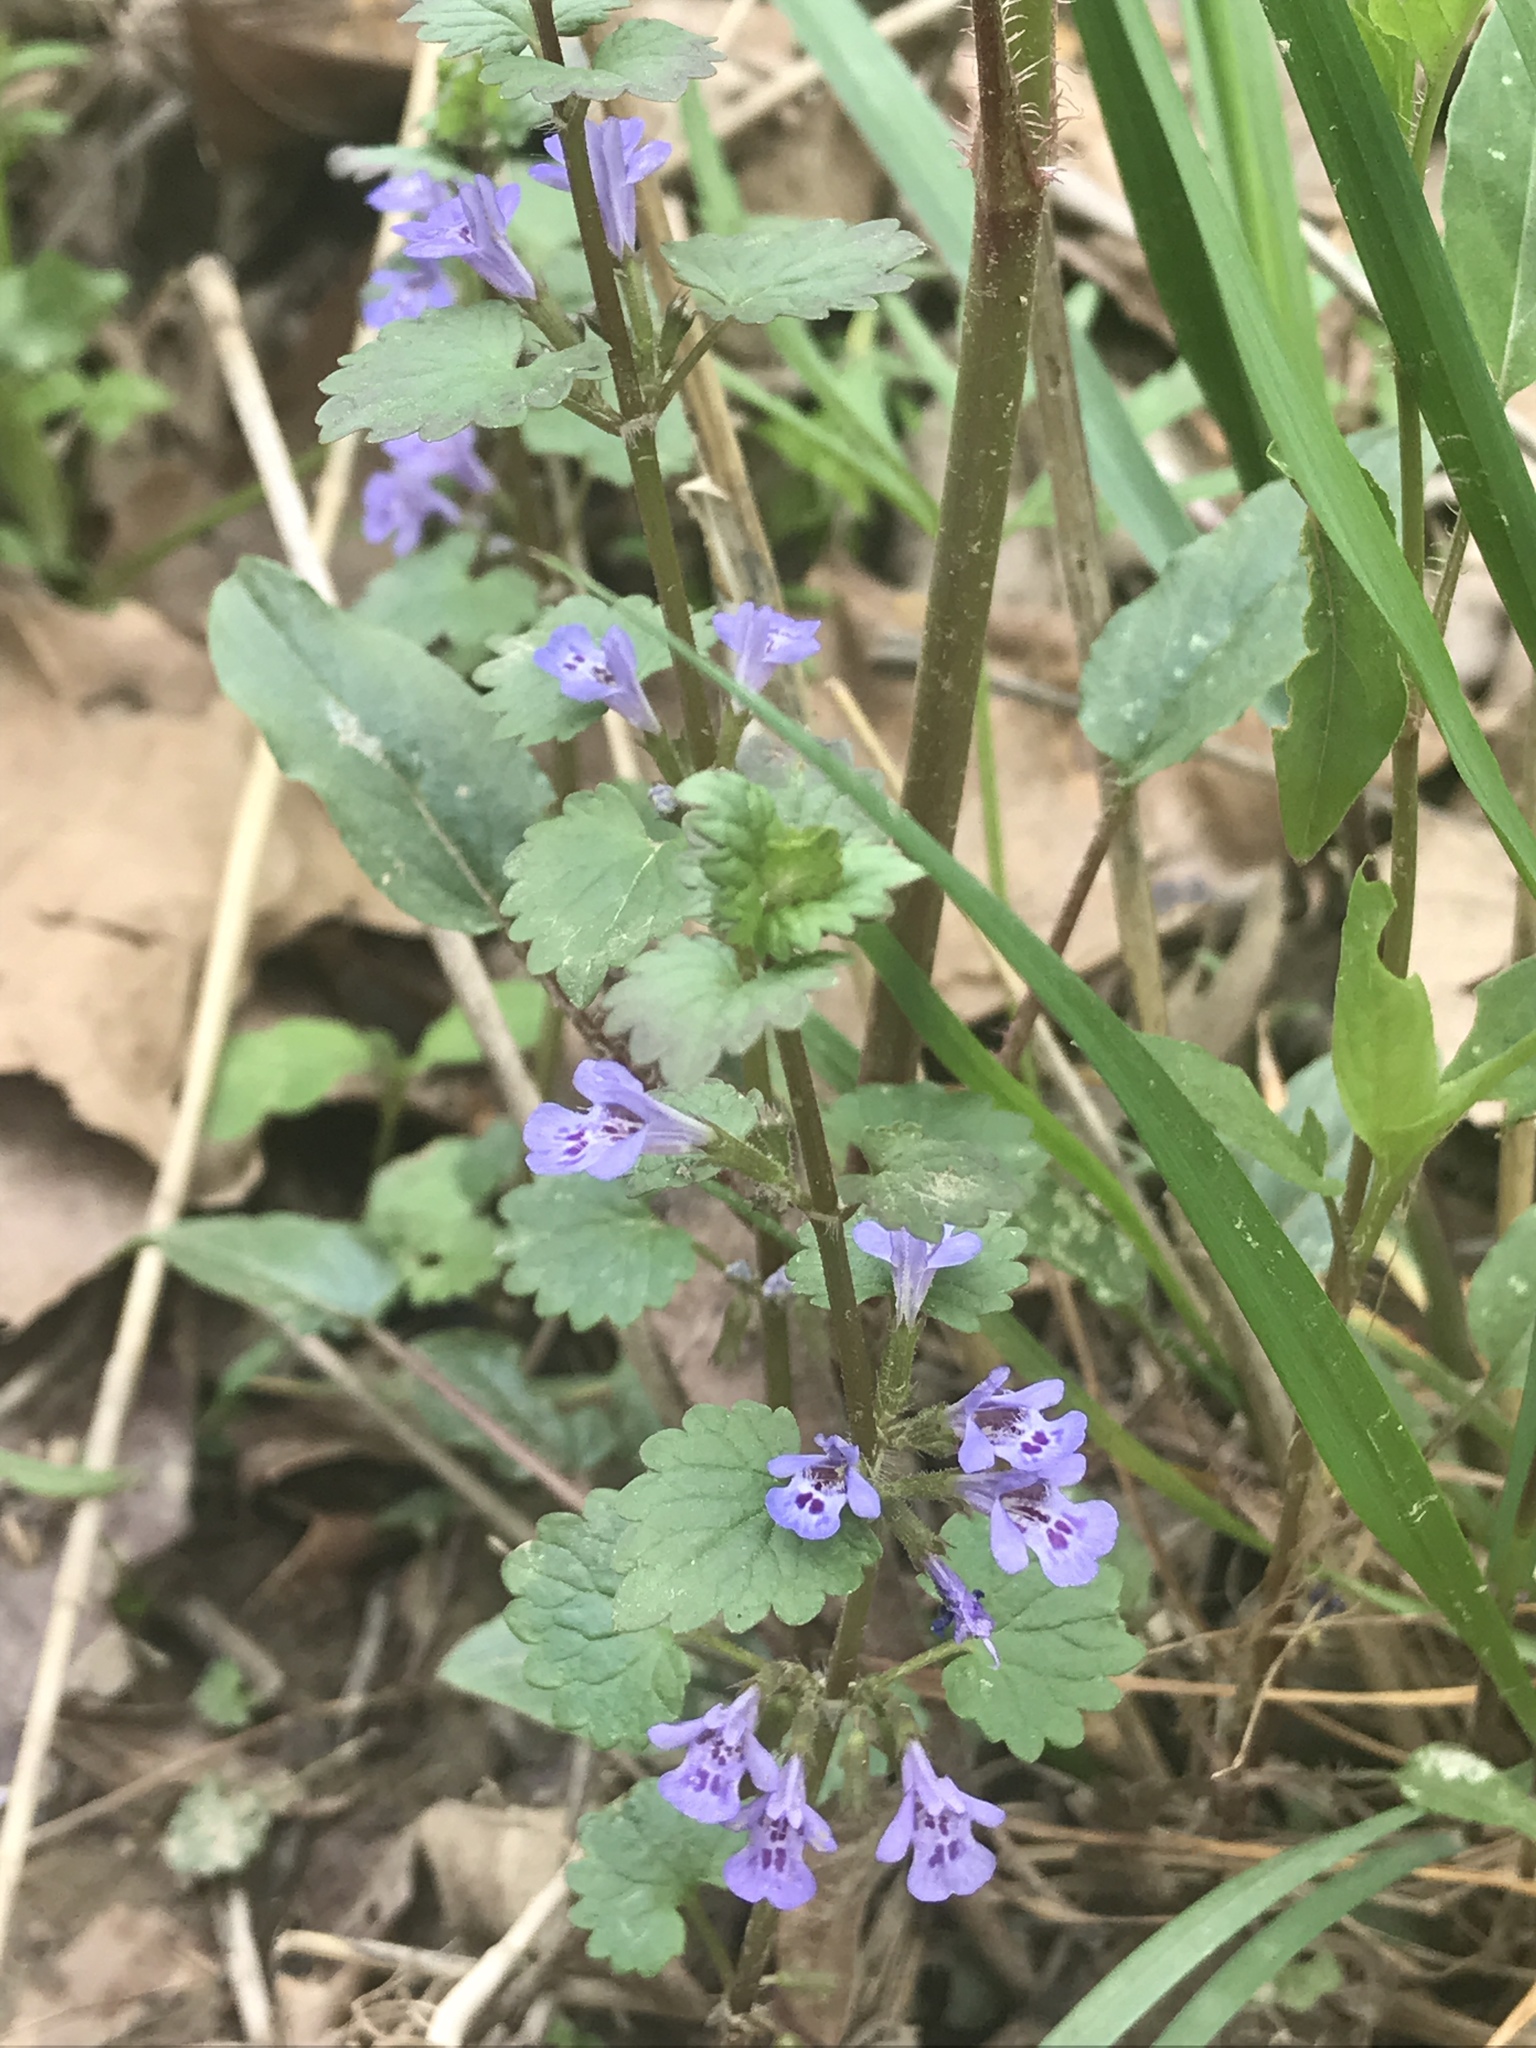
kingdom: Plantae
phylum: Tracheophyta
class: Magnoliopsida
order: Lamiales
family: Lamiaceae
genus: Glechoma
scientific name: Glechoma hederacea
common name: Ground ivy
